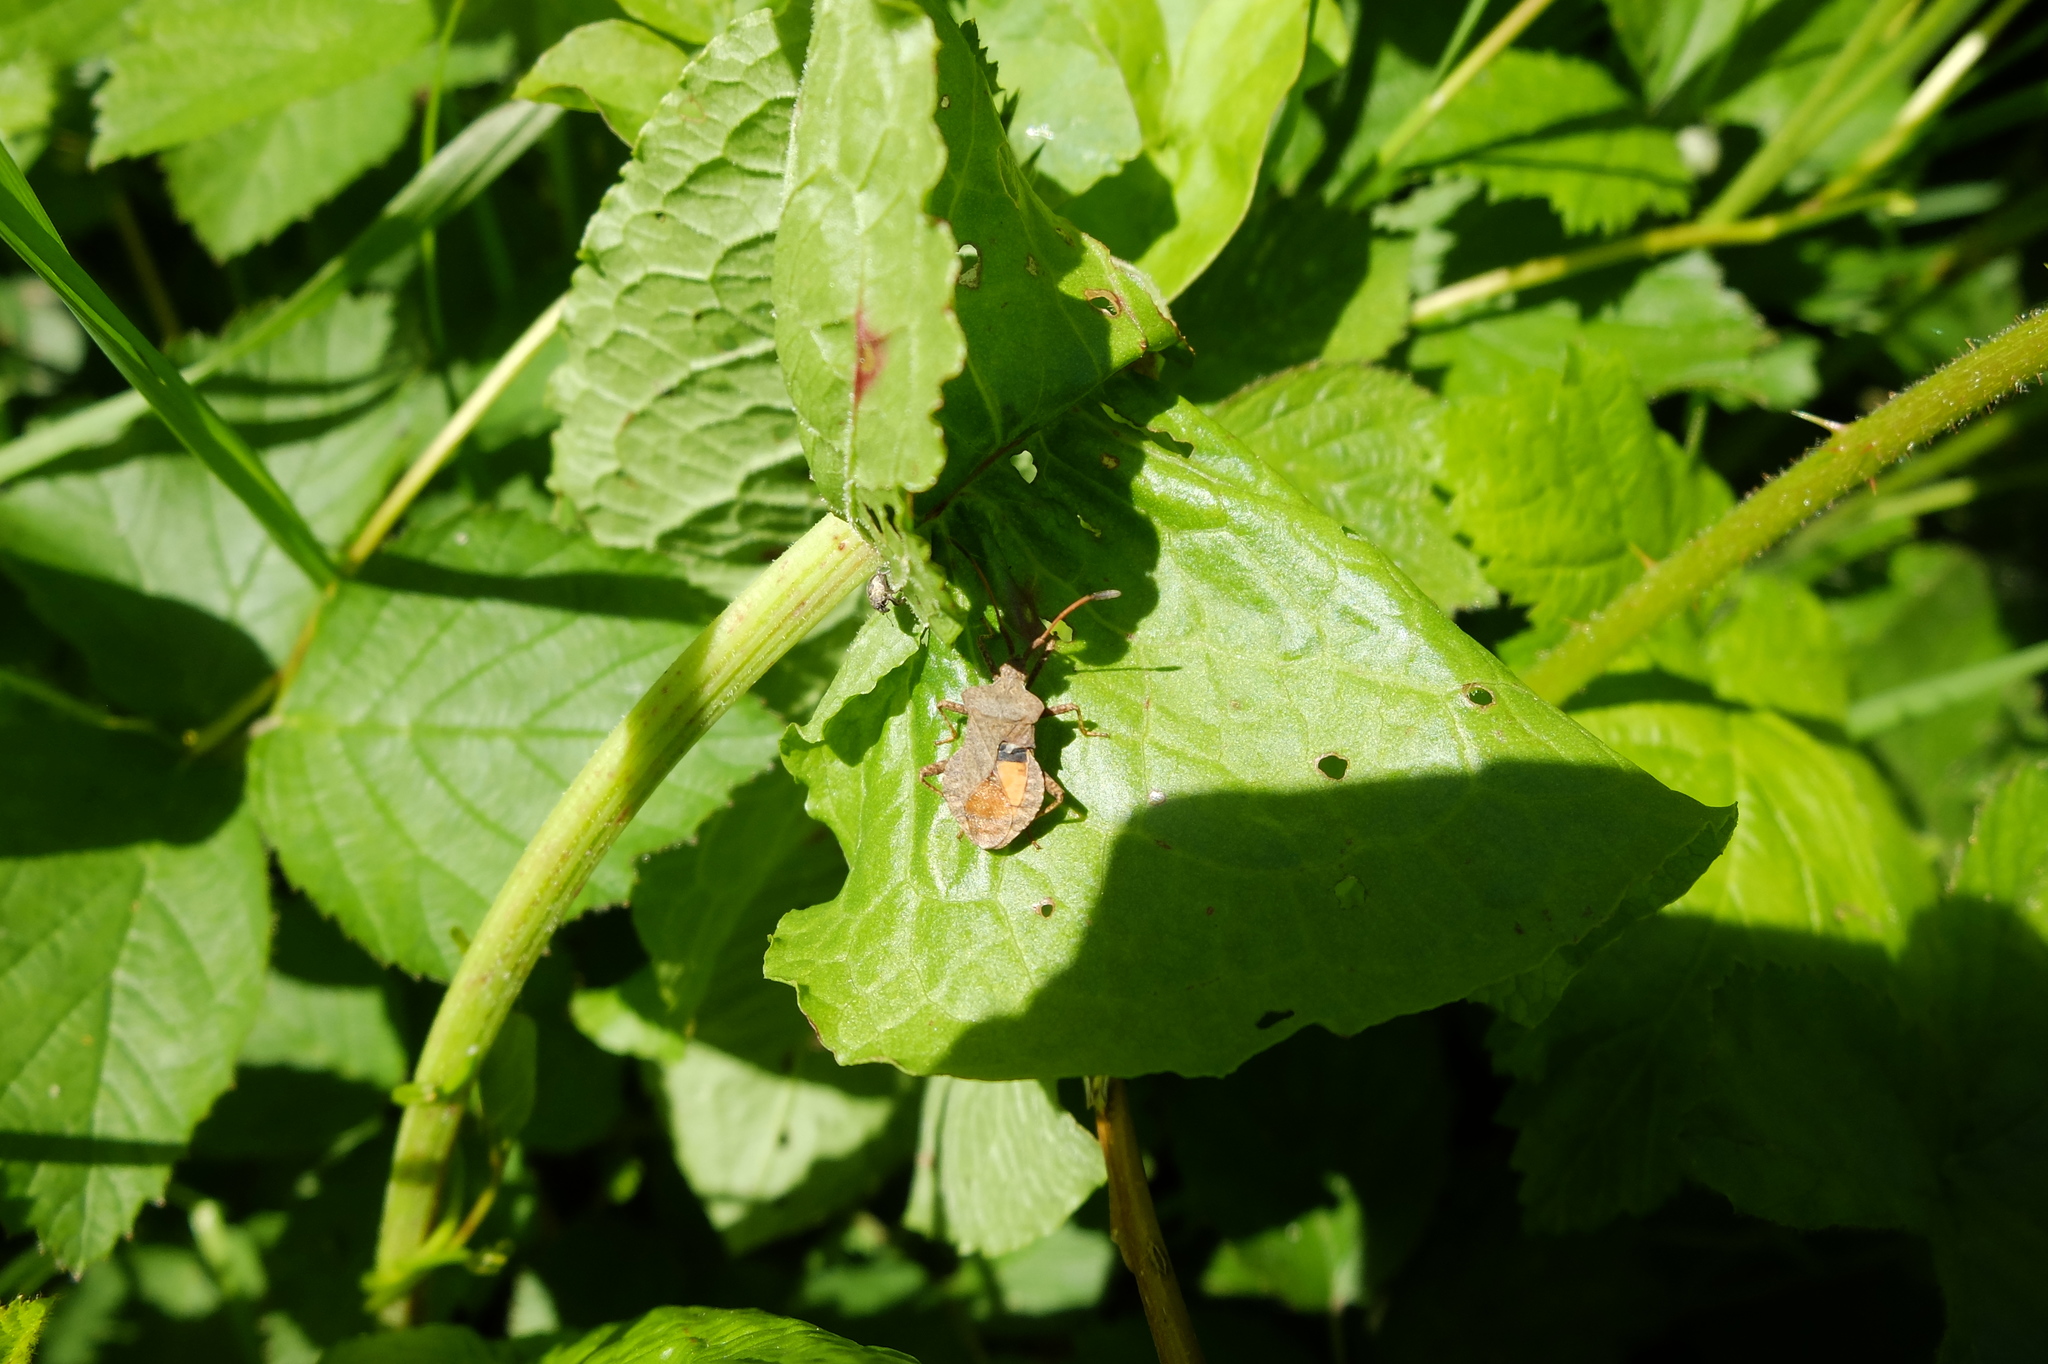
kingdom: Animalia
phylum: Arthropoda
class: Insecta
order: Hemiptera
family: Coreidae
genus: Coreus
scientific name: Coreus marginatus
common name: Dock bug
